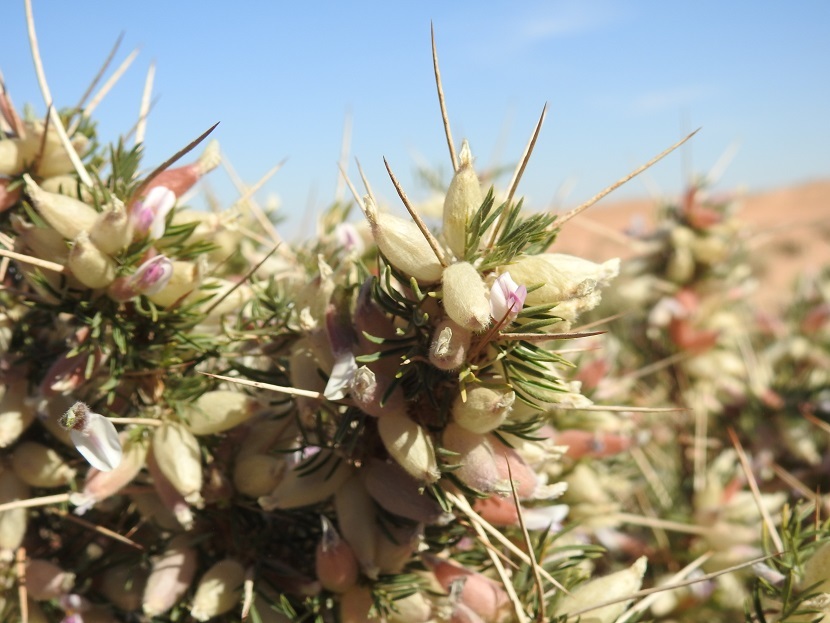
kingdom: Plantae
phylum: Tracheophyta
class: Magnoliopsida
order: Fabales
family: Fabaceae
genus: Astragalus
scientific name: Astragalus armatus
